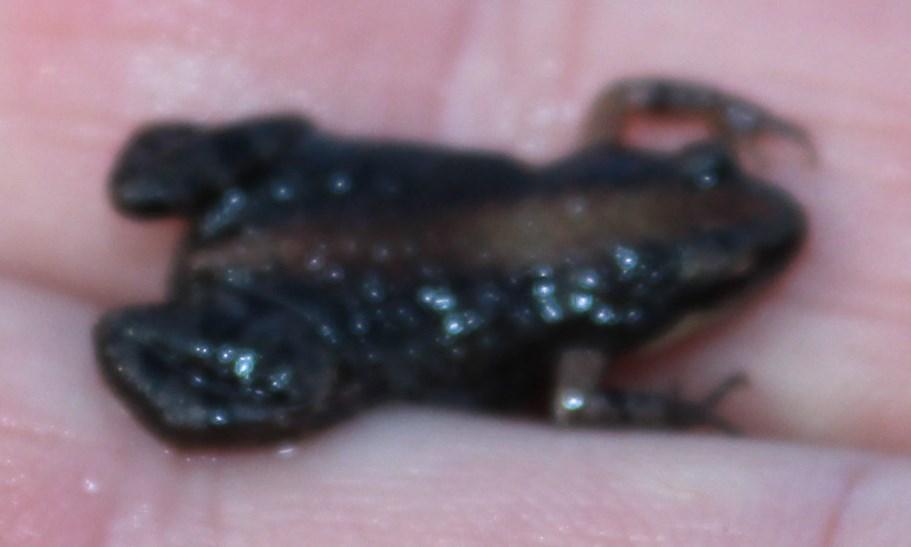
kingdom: Animalia
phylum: Chordata
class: Amphibia
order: Anura
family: Pyxicephalidae
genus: Cacosternum
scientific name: Cacosternum australis
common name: Southern dainty frog
